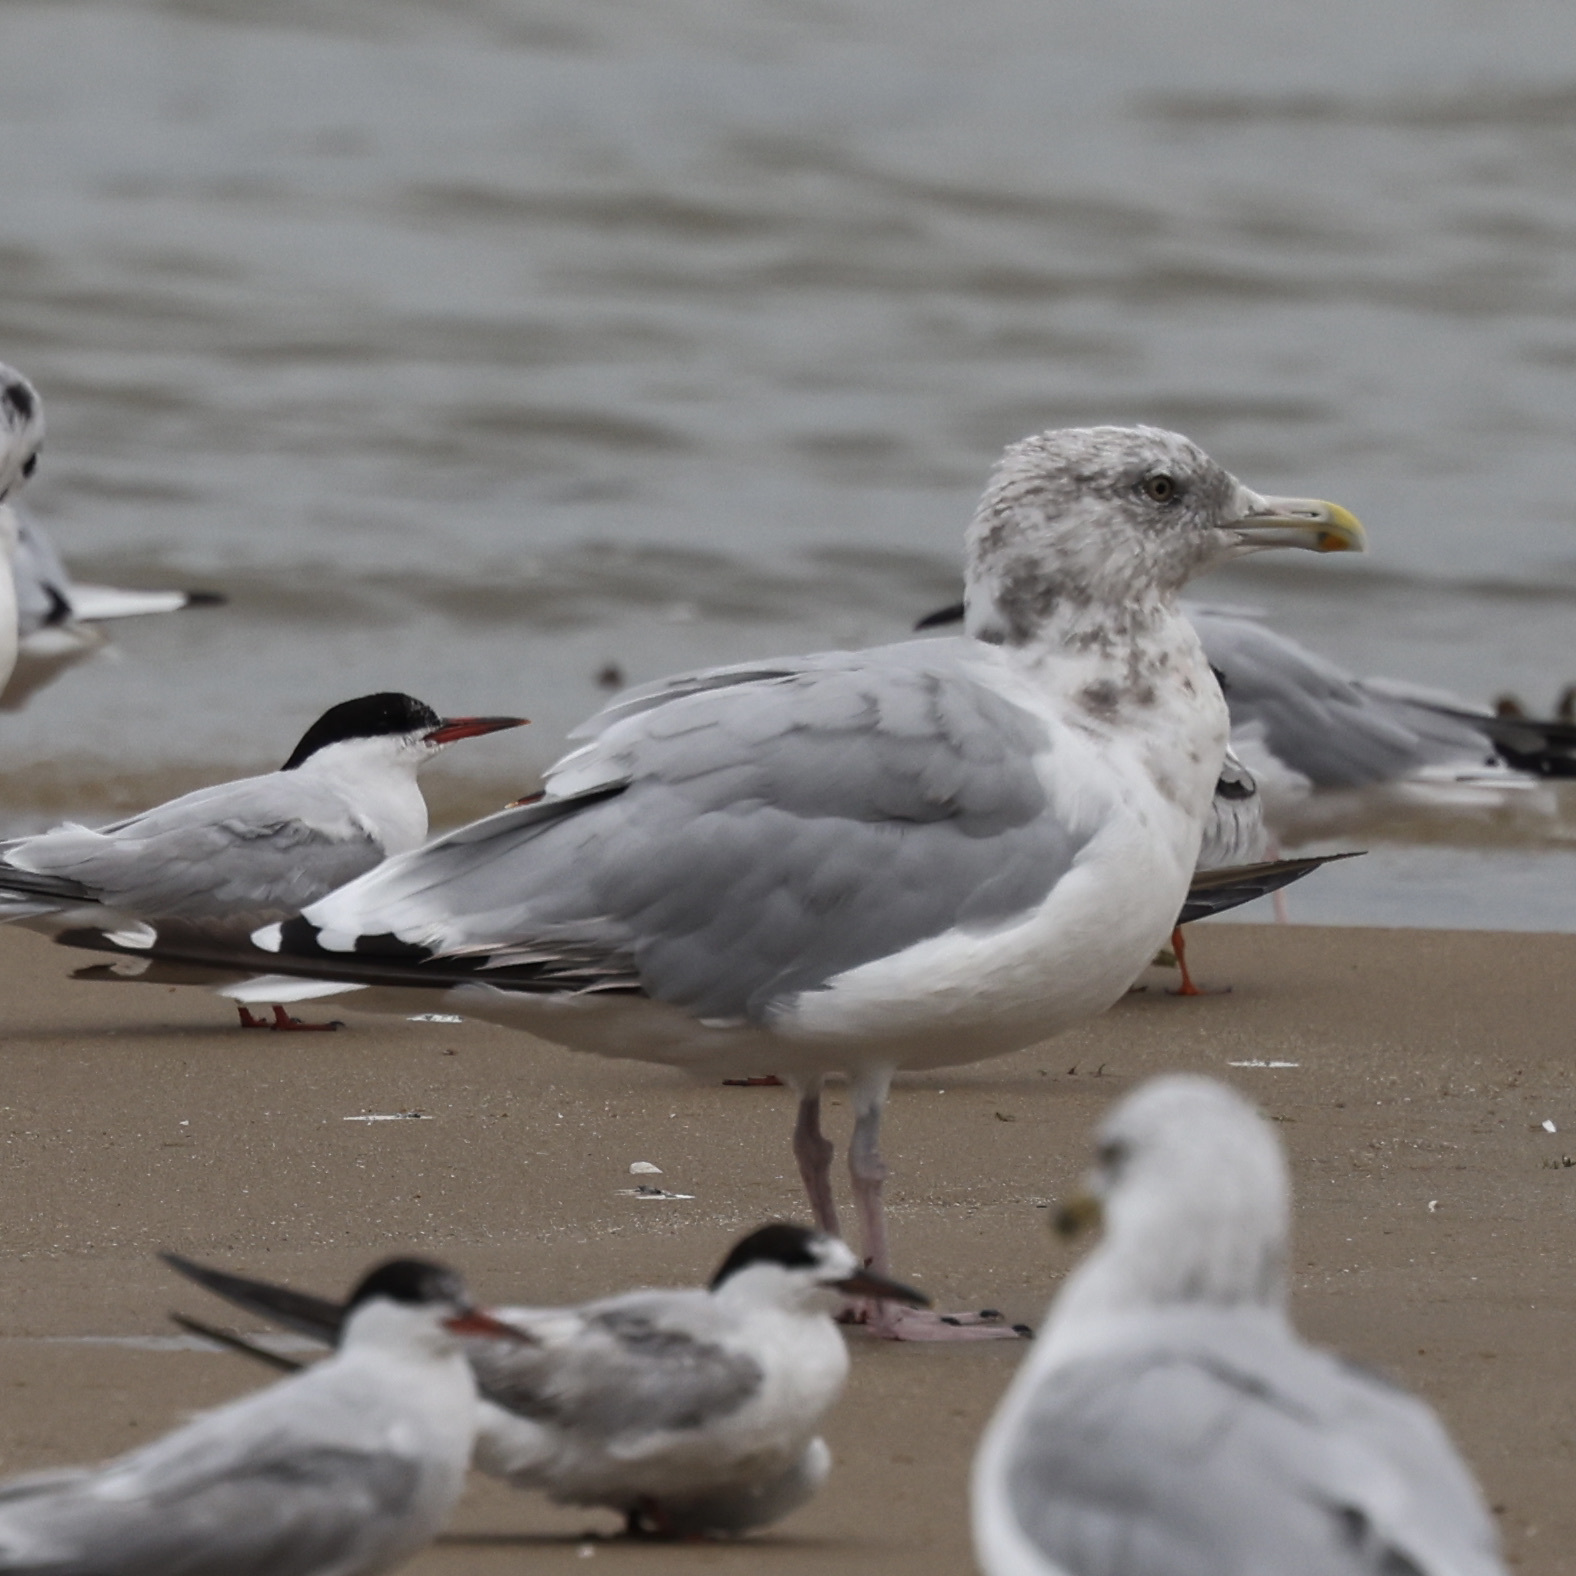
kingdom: Animalia
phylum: Chordata
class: Aves
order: Charadriiformes
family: Laridae
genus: Larus
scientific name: Larus argentatus
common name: Herring gull
